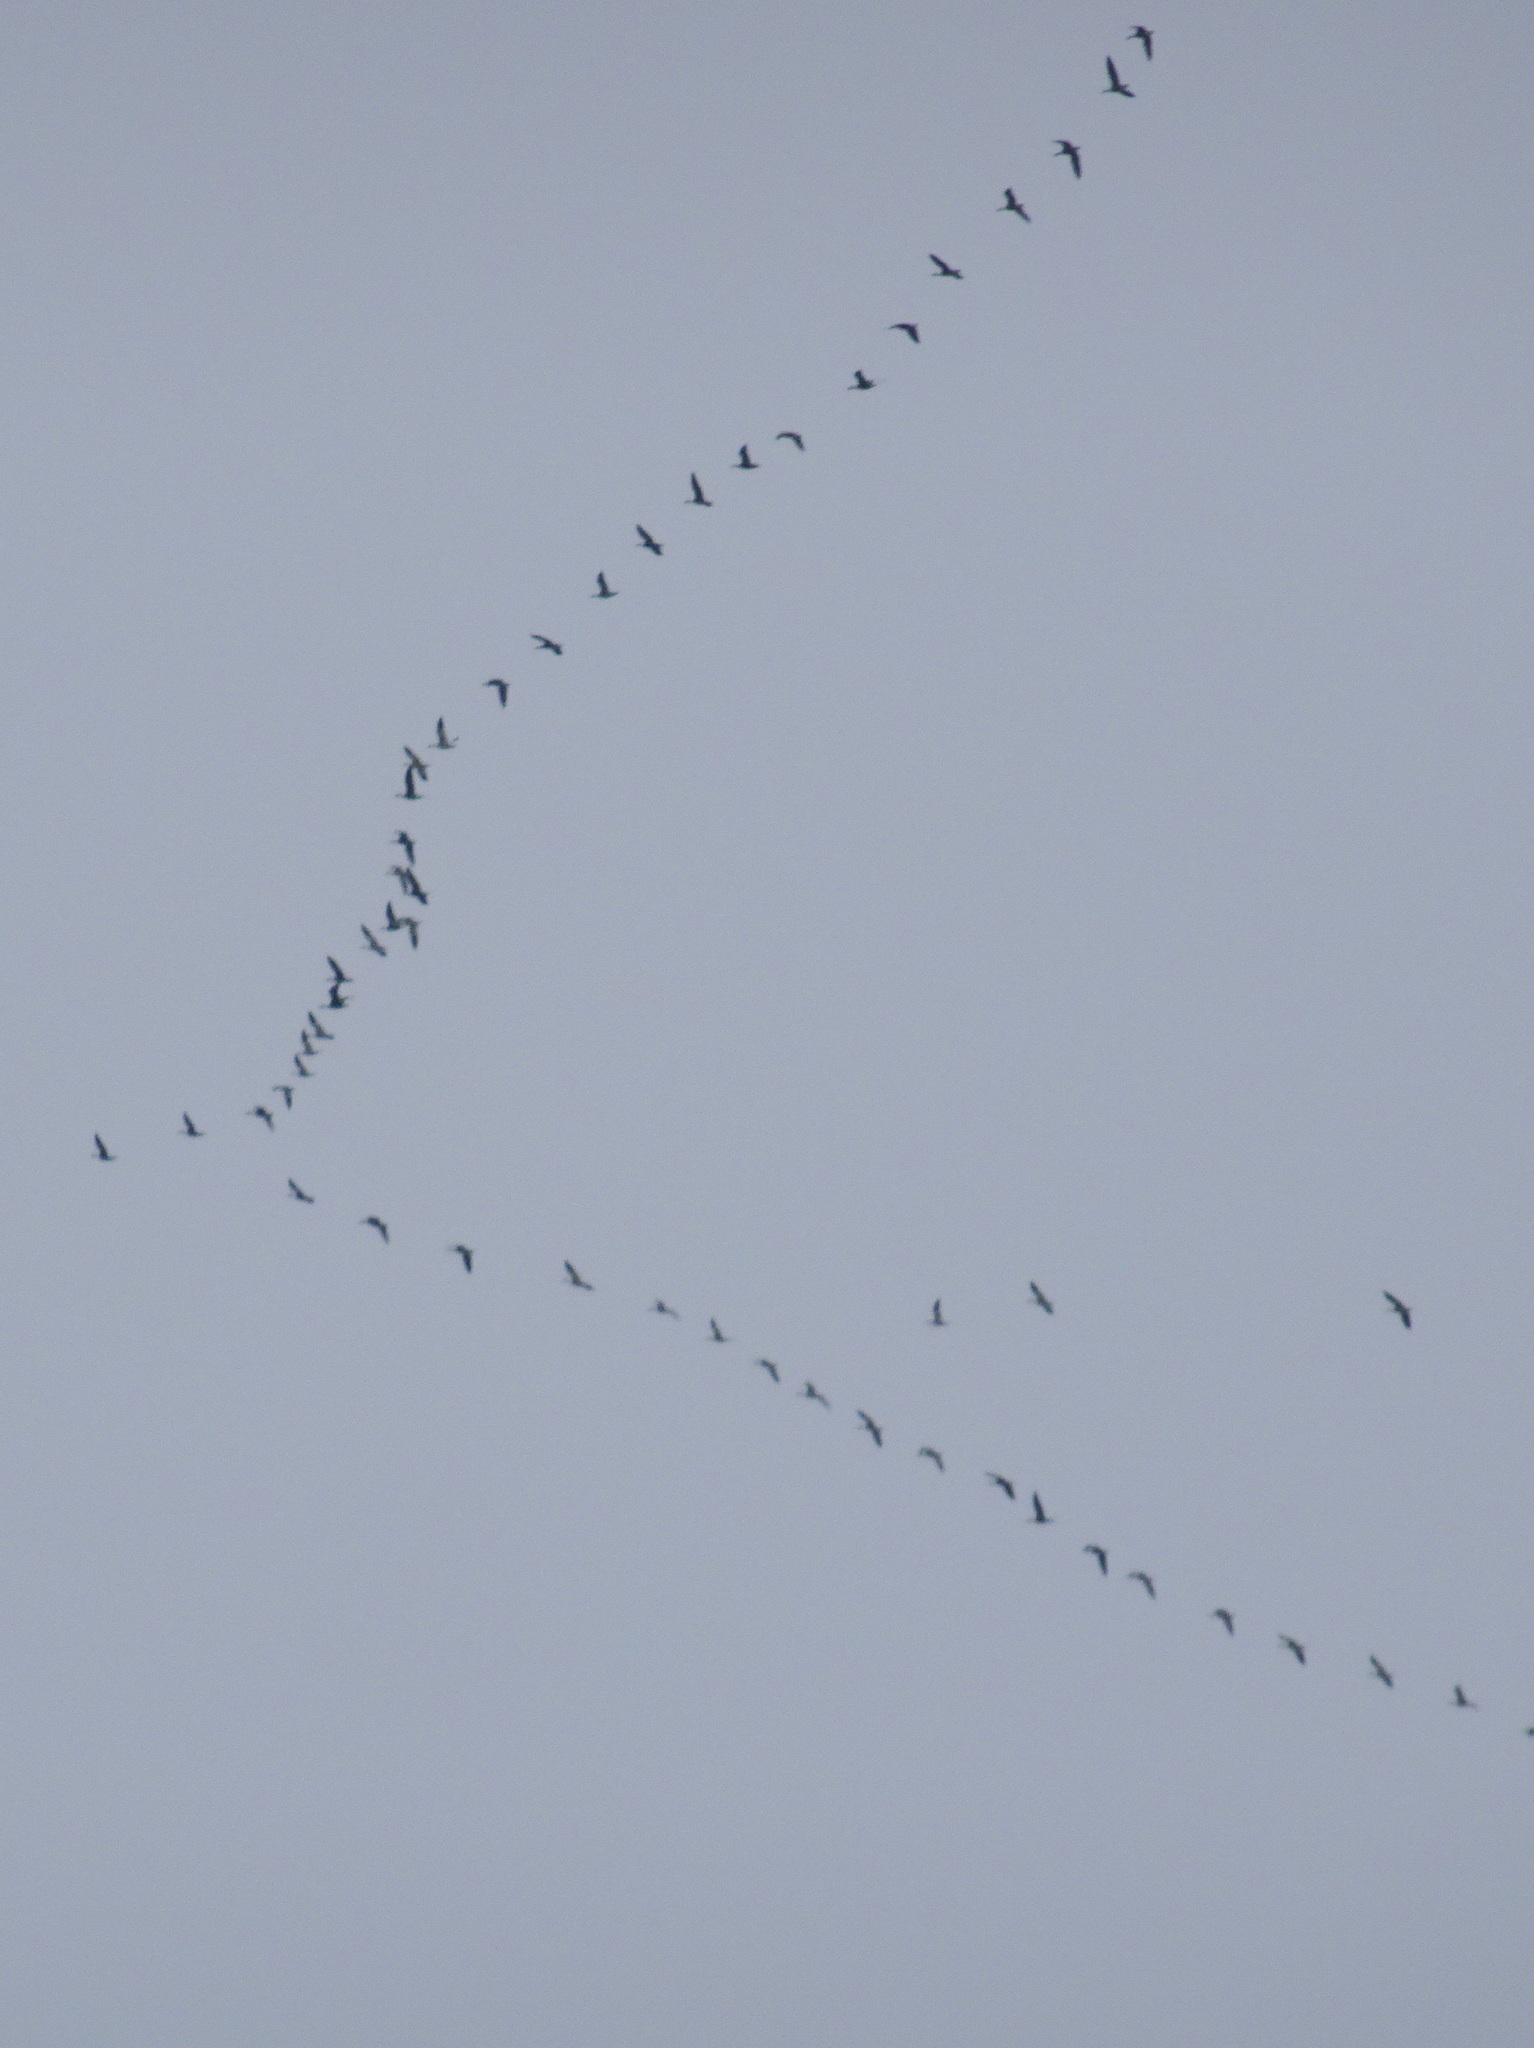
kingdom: Animalia
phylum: Chordata
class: Aves
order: Anseriformes
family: Anatidae
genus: Anser
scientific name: Anser caerulescens
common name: Snow goose
